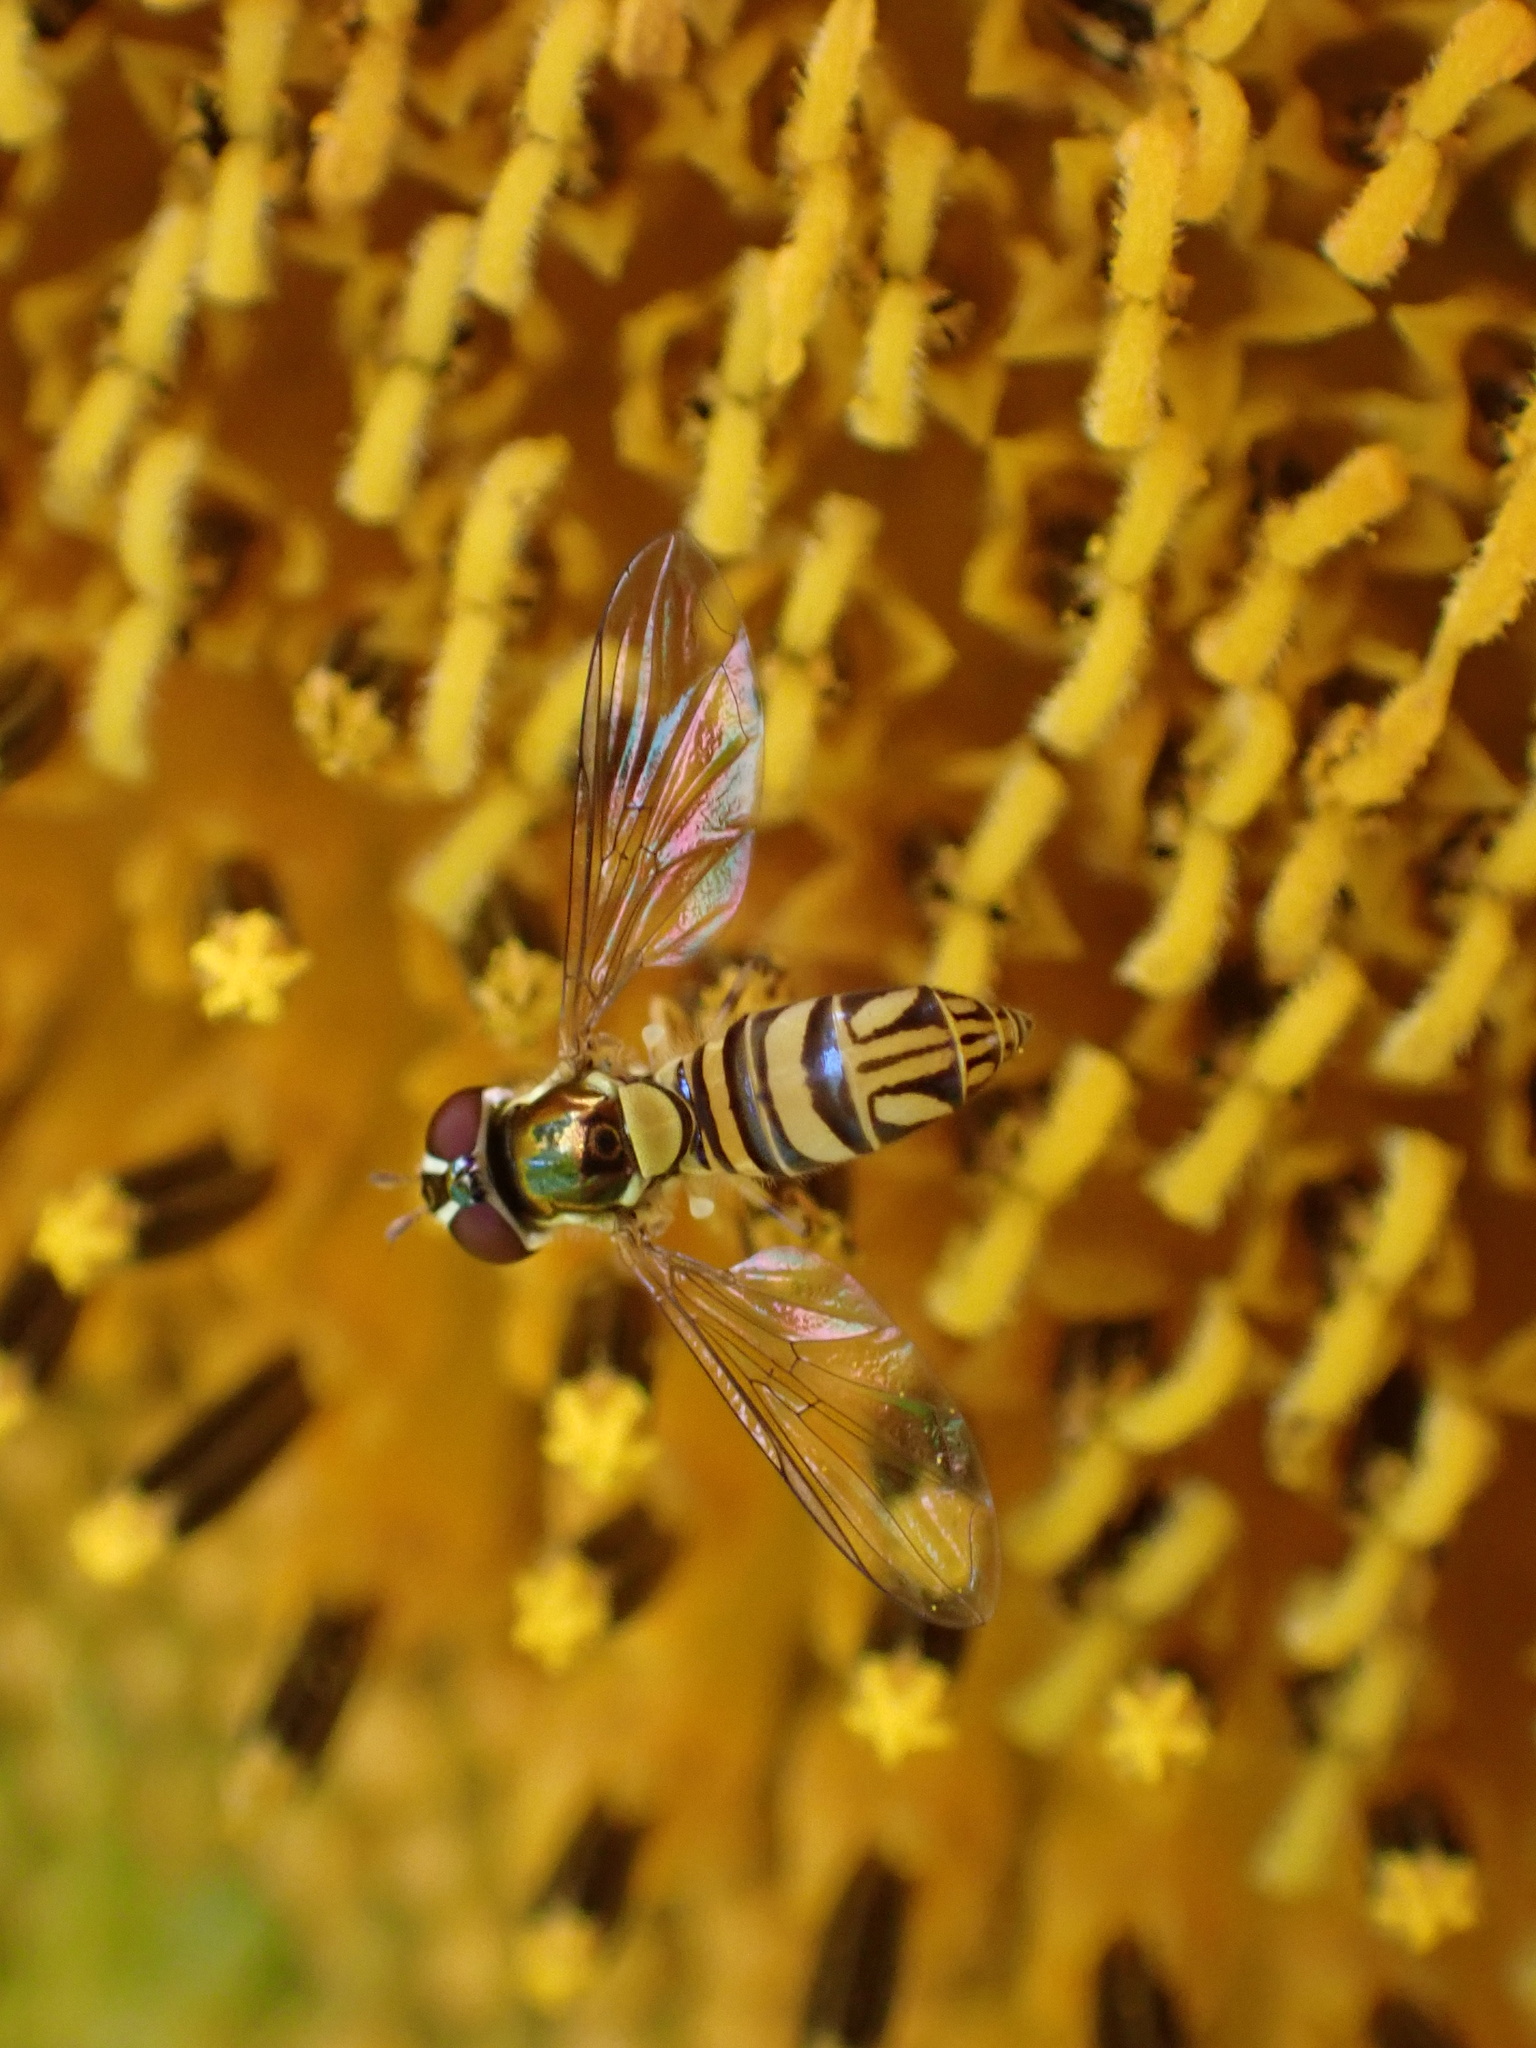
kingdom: Animalia
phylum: Arthropoda
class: Insecta
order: Diptera
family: Syrphidae
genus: Allograpta
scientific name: Allograpta obliqua
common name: Common oblique syrphid
